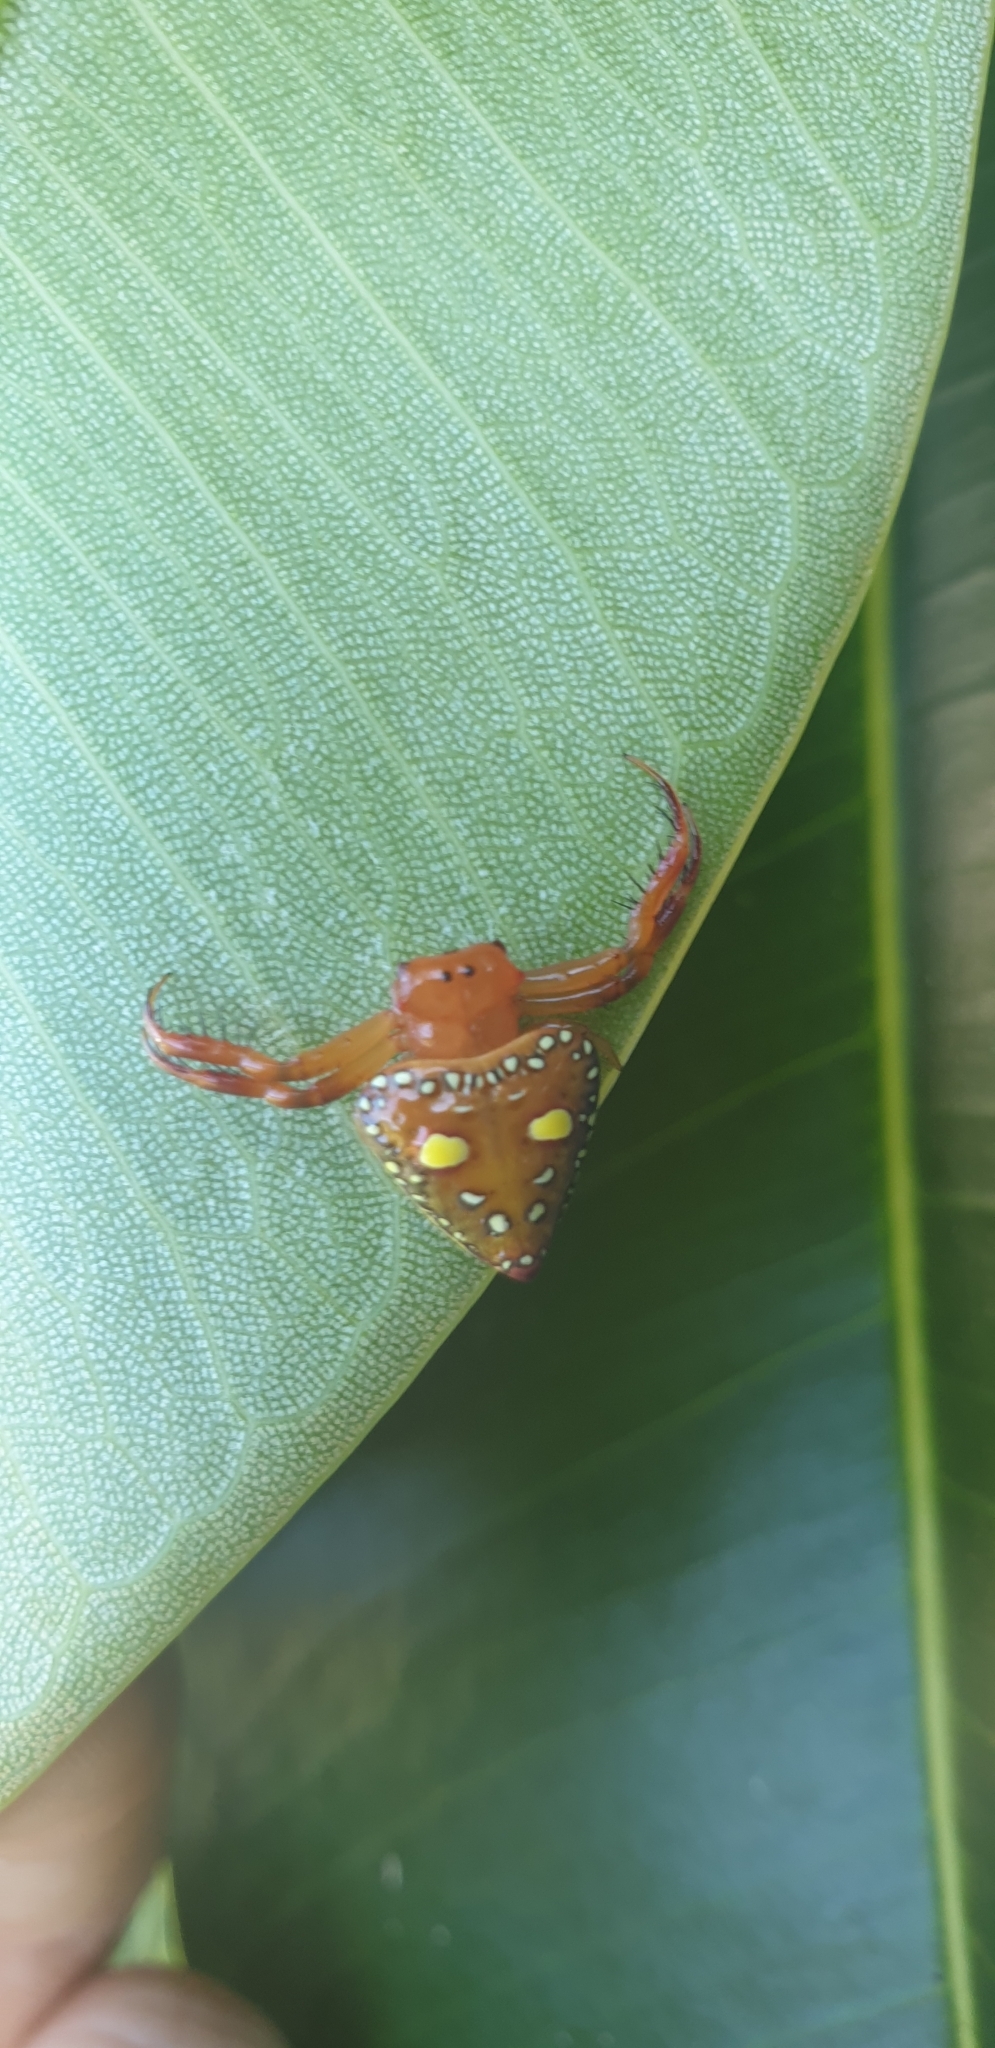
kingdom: Animalia
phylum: Arthropoda
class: Arachnida
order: Araneae
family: Arkyidae
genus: Arkys
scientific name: Arkys lancearius
